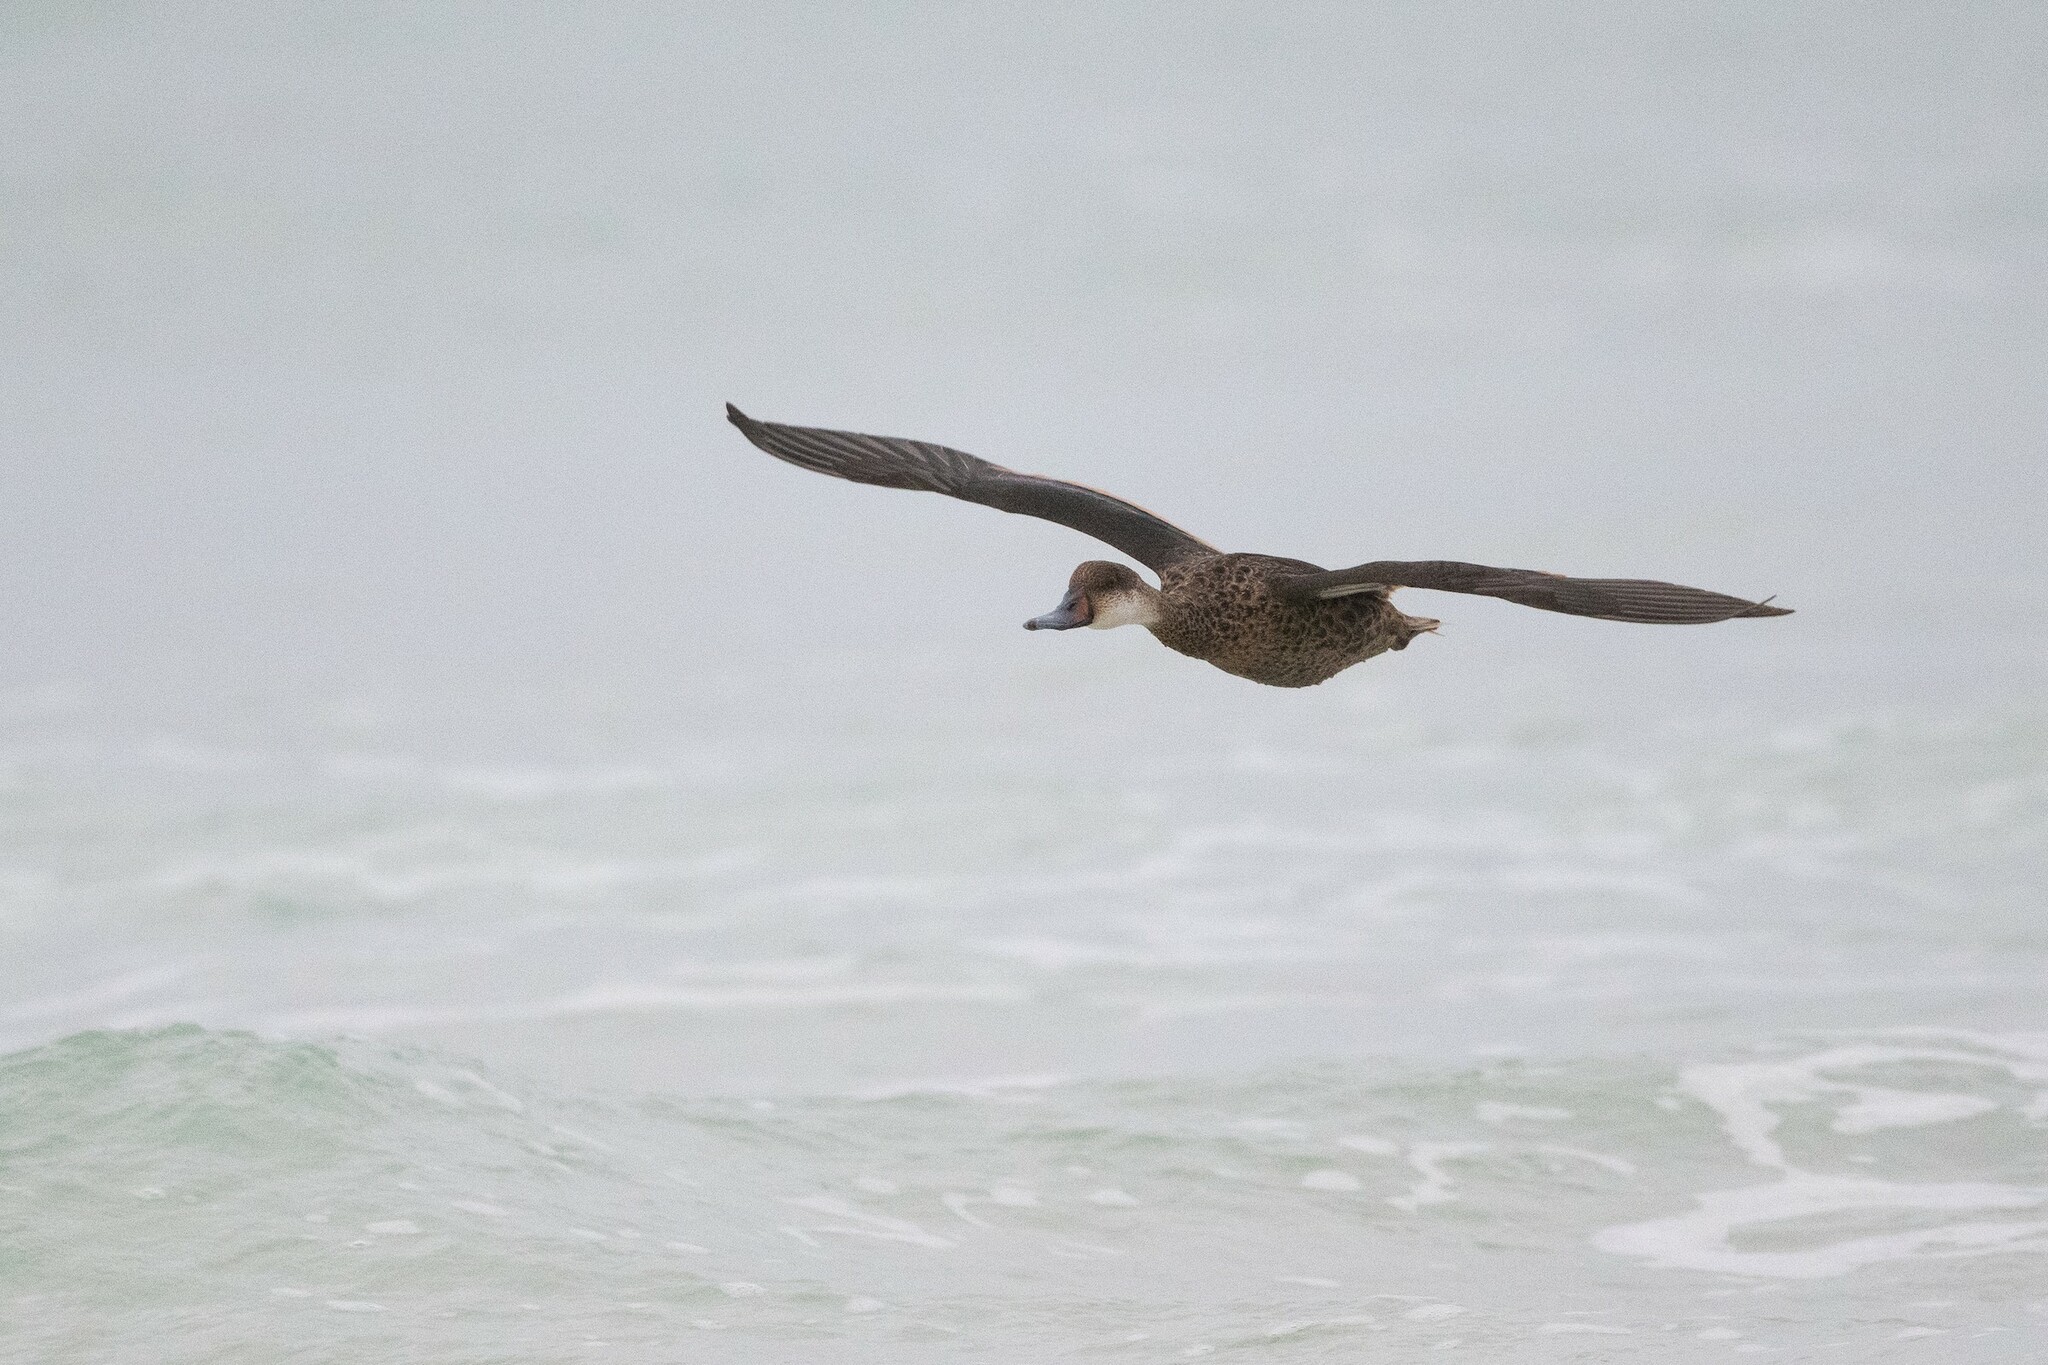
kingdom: Animalia
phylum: Chordata
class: Aves
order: Anseriformes
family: Anatidae
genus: Anas
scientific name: Anas bahamensis
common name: White-cheeked pintail
